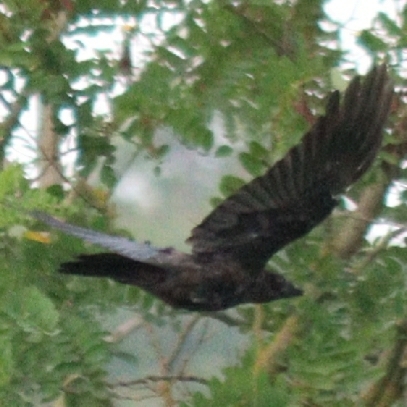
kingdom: Animalia
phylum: Chordata
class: Aves
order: Passeriformes
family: Corvidae
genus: Corvus
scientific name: Corvus corone
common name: Carrion crow
